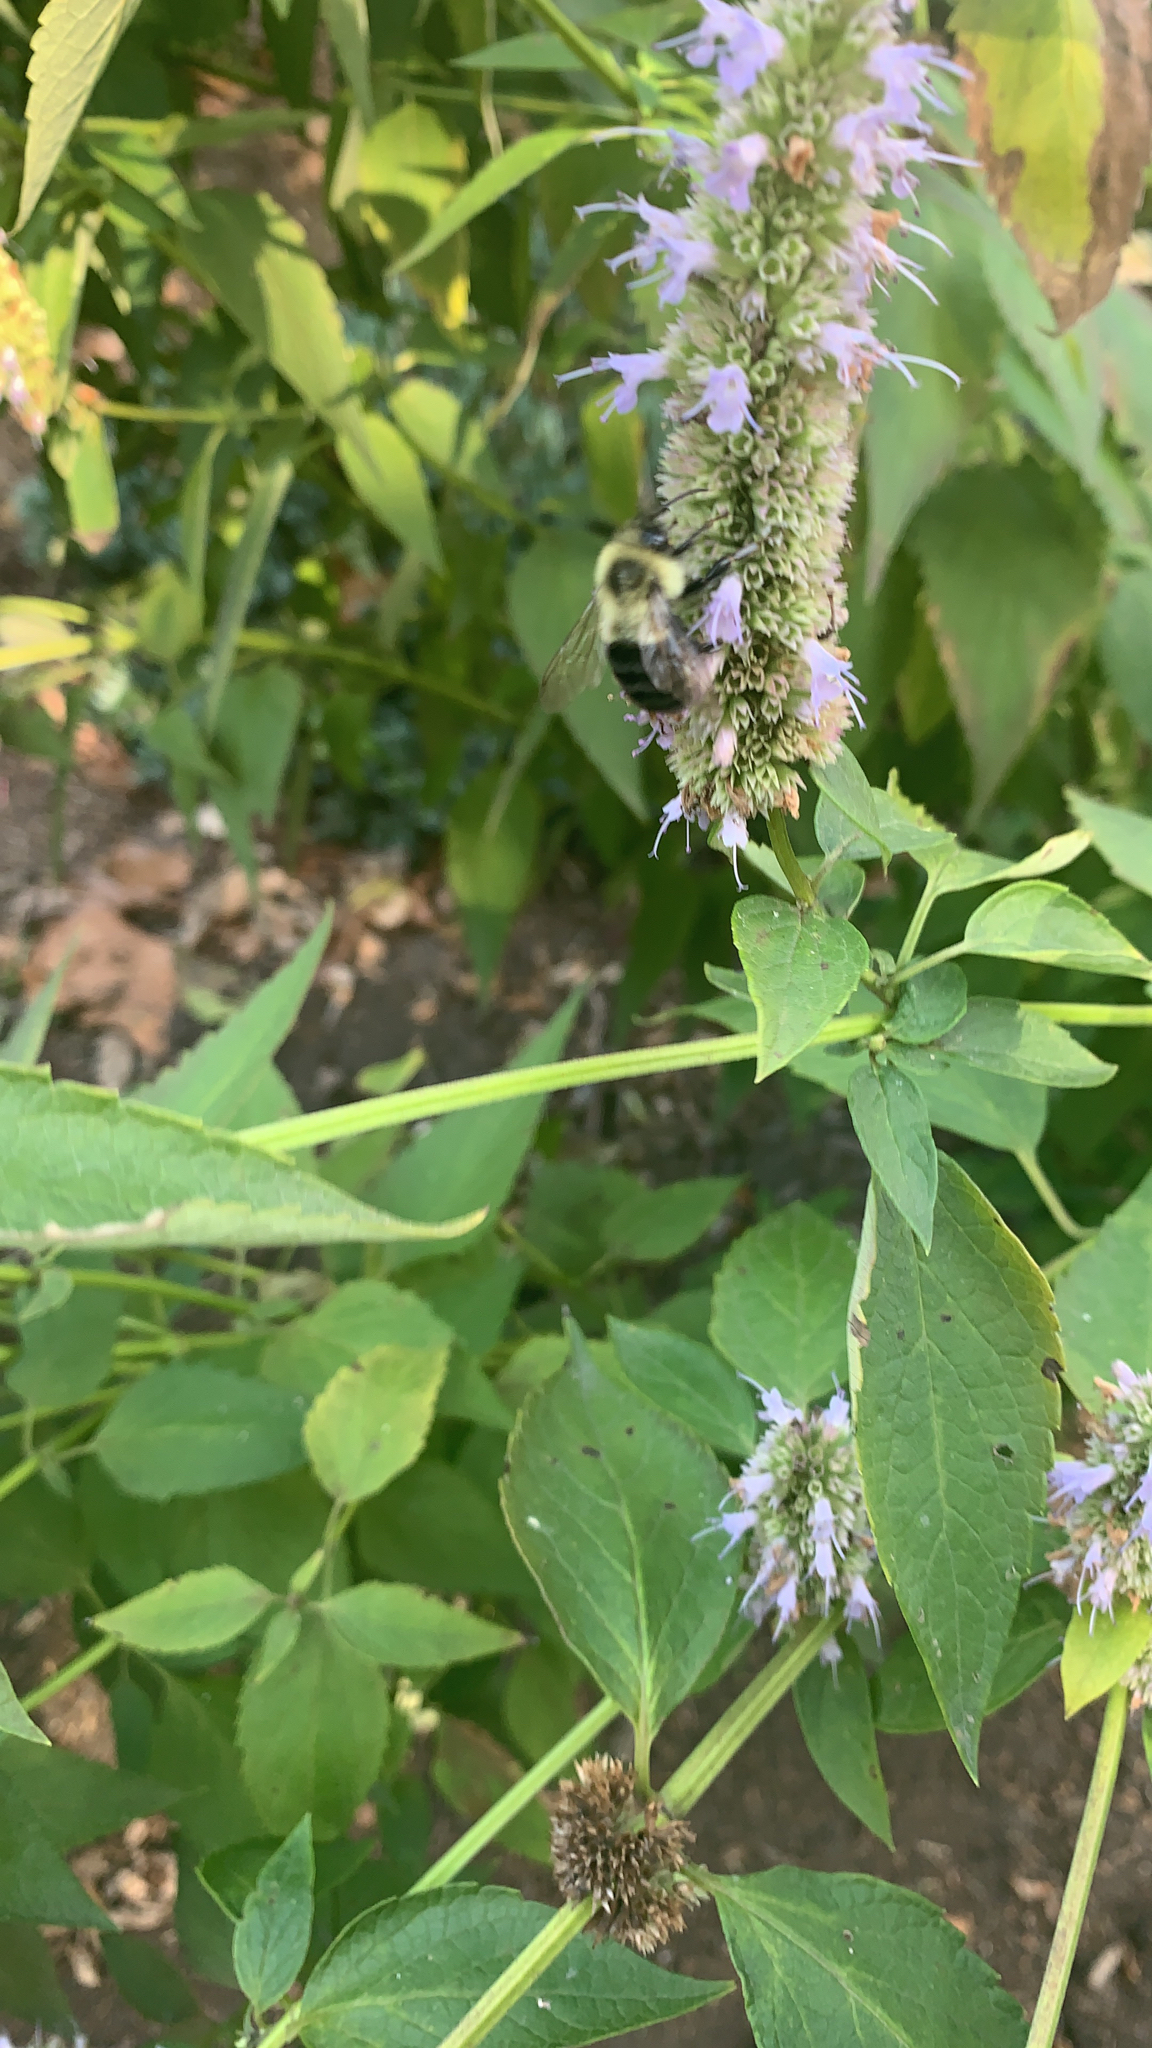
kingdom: Animalia
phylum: Arthropoda
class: Insecta
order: Hymenoptera
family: Apidae
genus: Bombus
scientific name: Bombus impatiens
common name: Common eastern bumble bee
